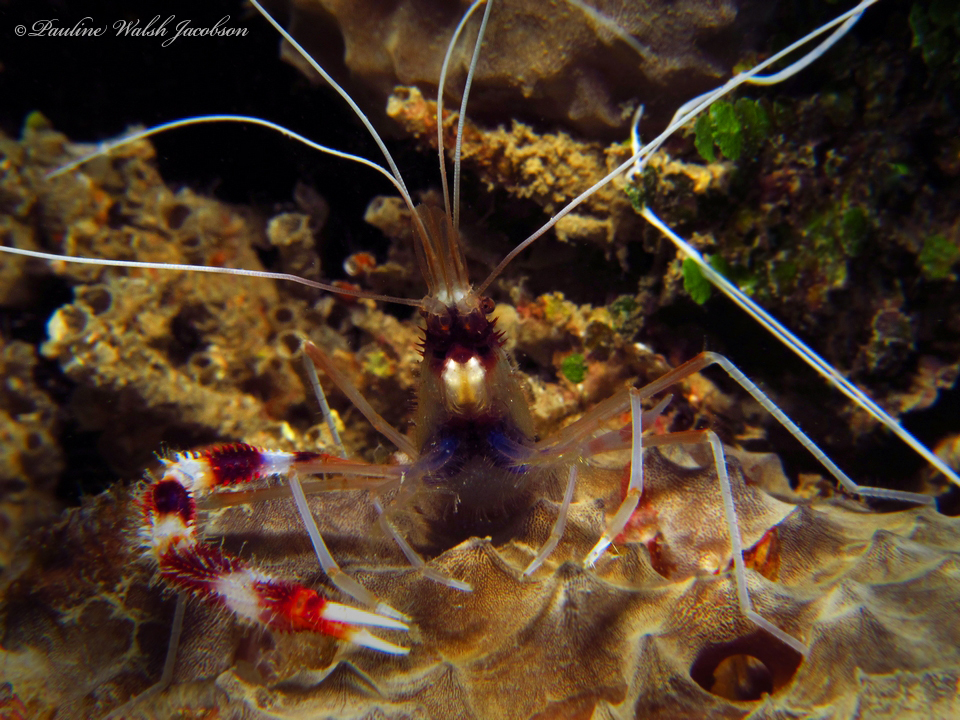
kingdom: Animalia
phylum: Arthropoda
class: Malacostraca
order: Decapoda
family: Stenopodidae
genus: Stenopus
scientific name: Stenopus hispidus
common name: Banded coral shrimp
